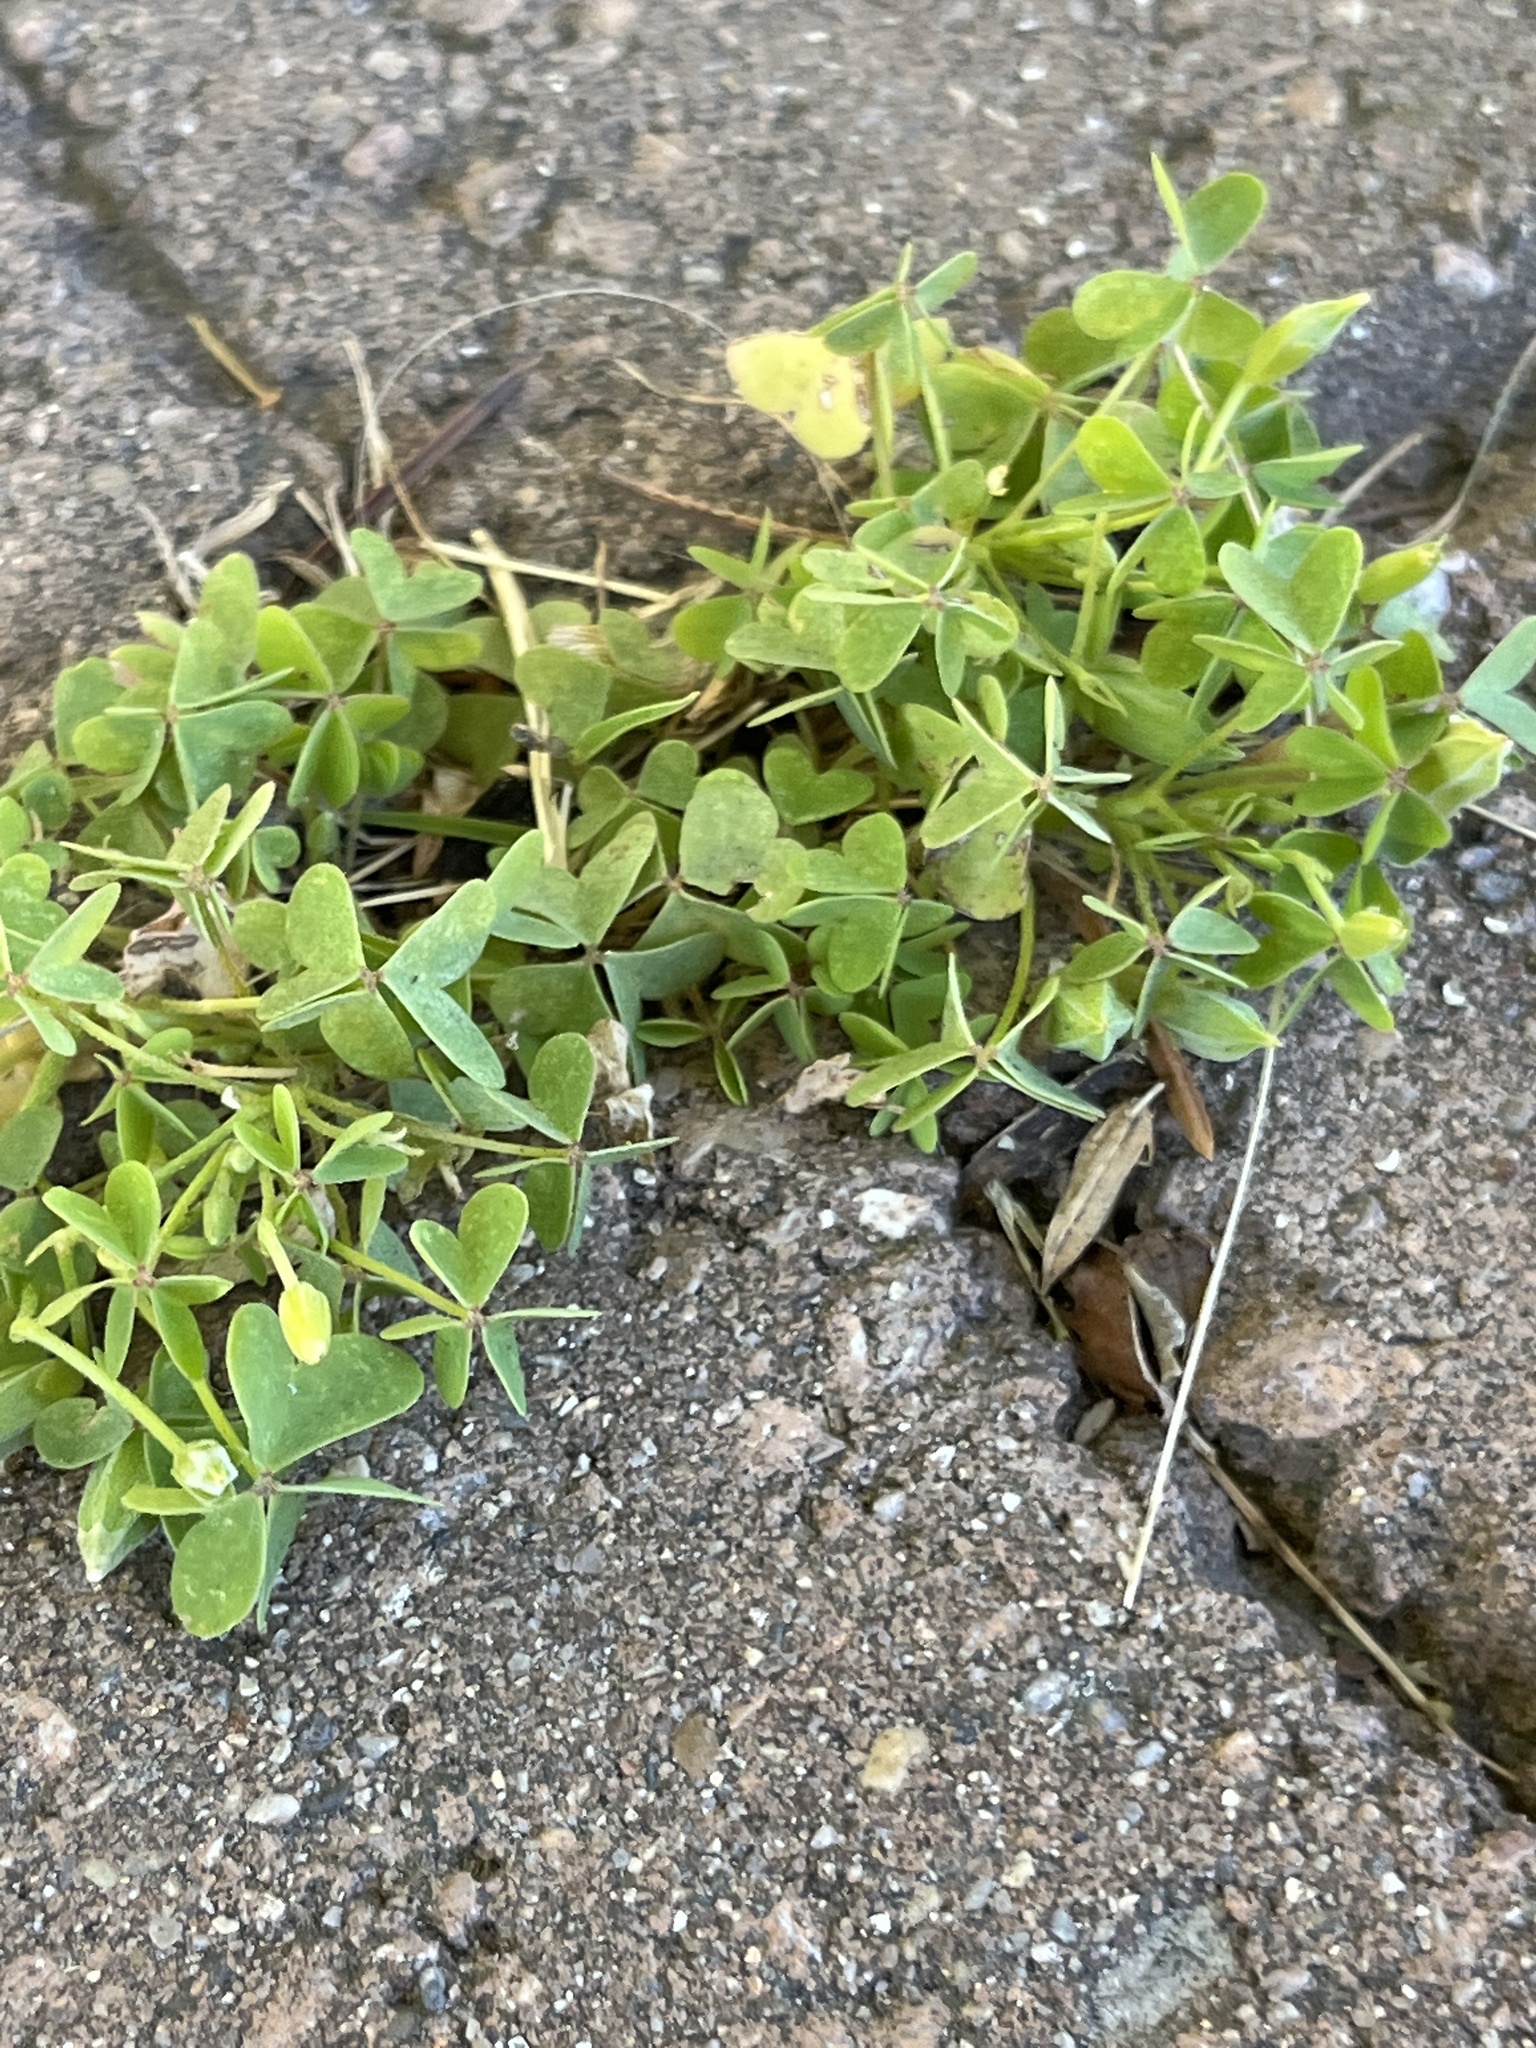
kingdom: Plantae
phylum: Tracheophyta
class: Magnoliopsida
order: Oxalidales
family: Oxalidaceae
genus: Oxalis
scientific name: Oxalis
